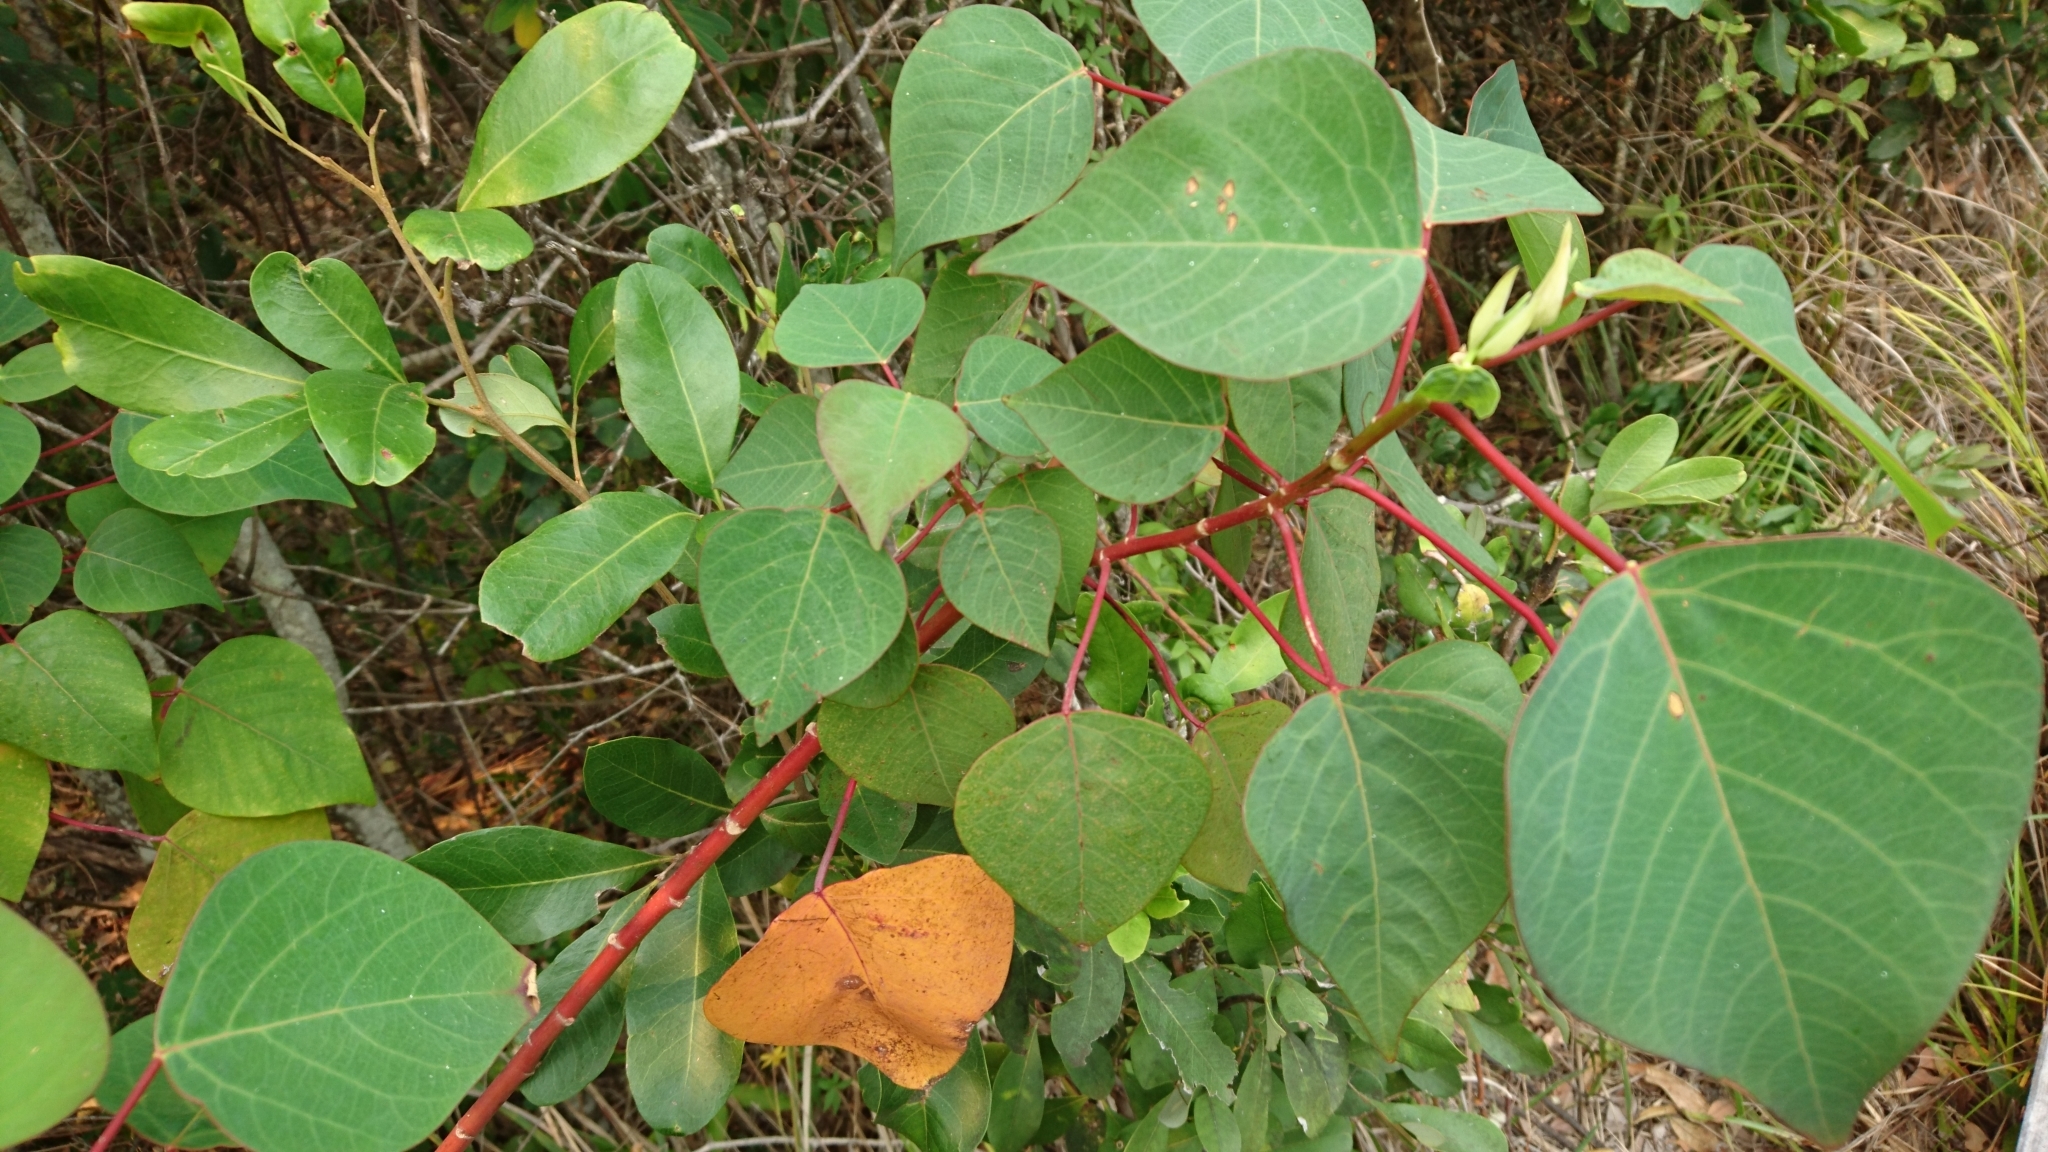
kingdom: Plantae
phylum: Tracheophyta
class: Magnoliopsida
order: Malpighiales
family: Euphorbiaceae
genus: Homalanthus
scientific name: Homalanthus populifolius
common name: Queensland poplar
